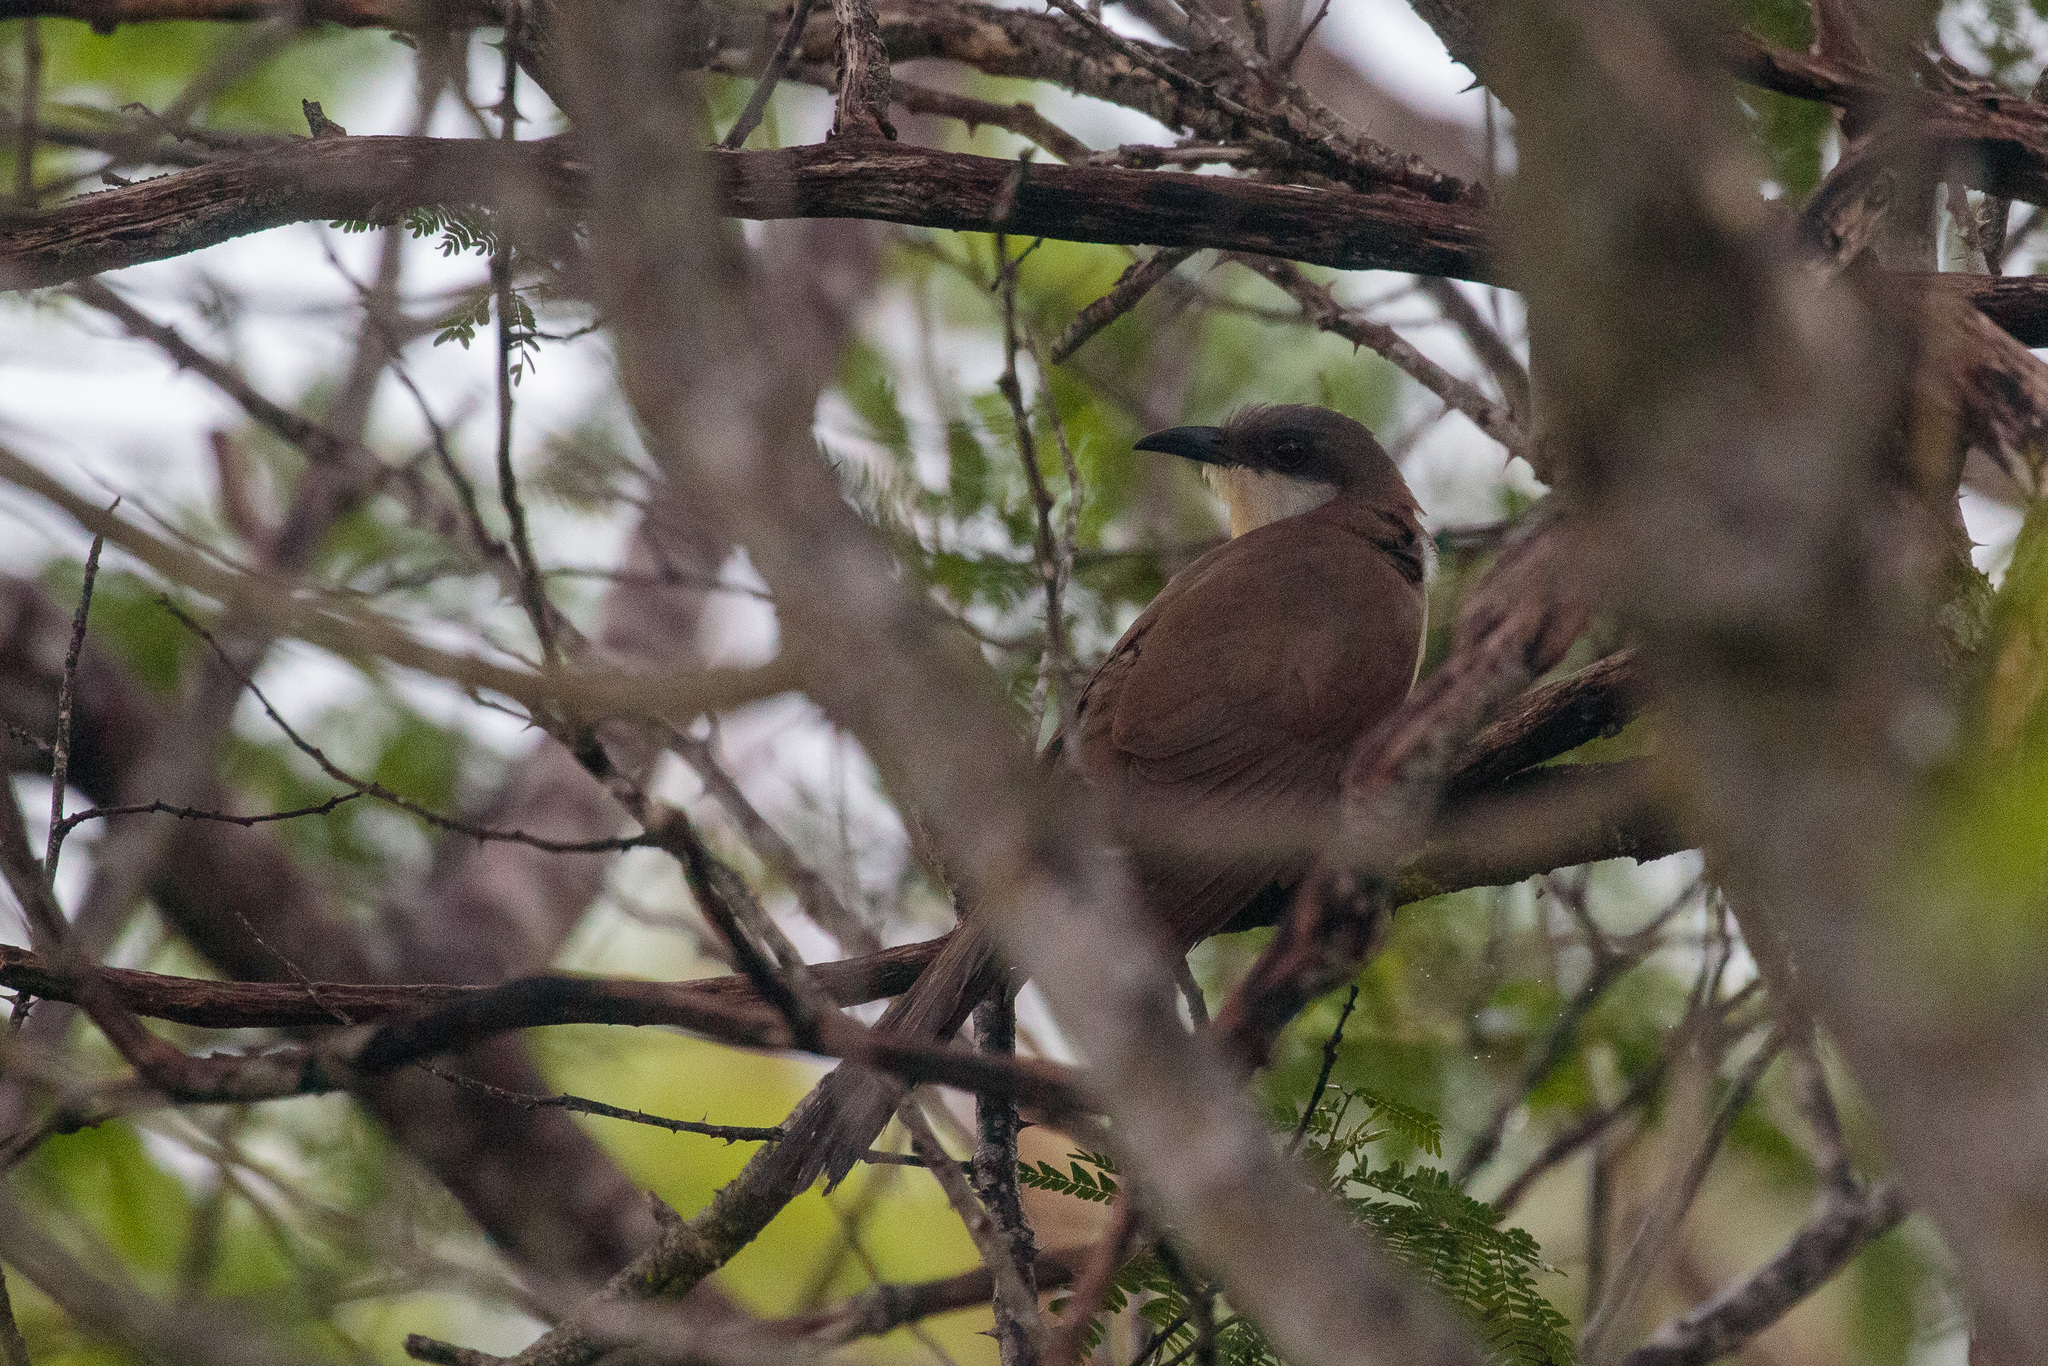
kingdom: Animalia
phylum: Chordata
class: Aves
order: Cuculiformes
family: Cuculidae
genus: Coccyzus
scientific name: Coccyzus melacoryphus
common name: Dark-billed cuckoo
